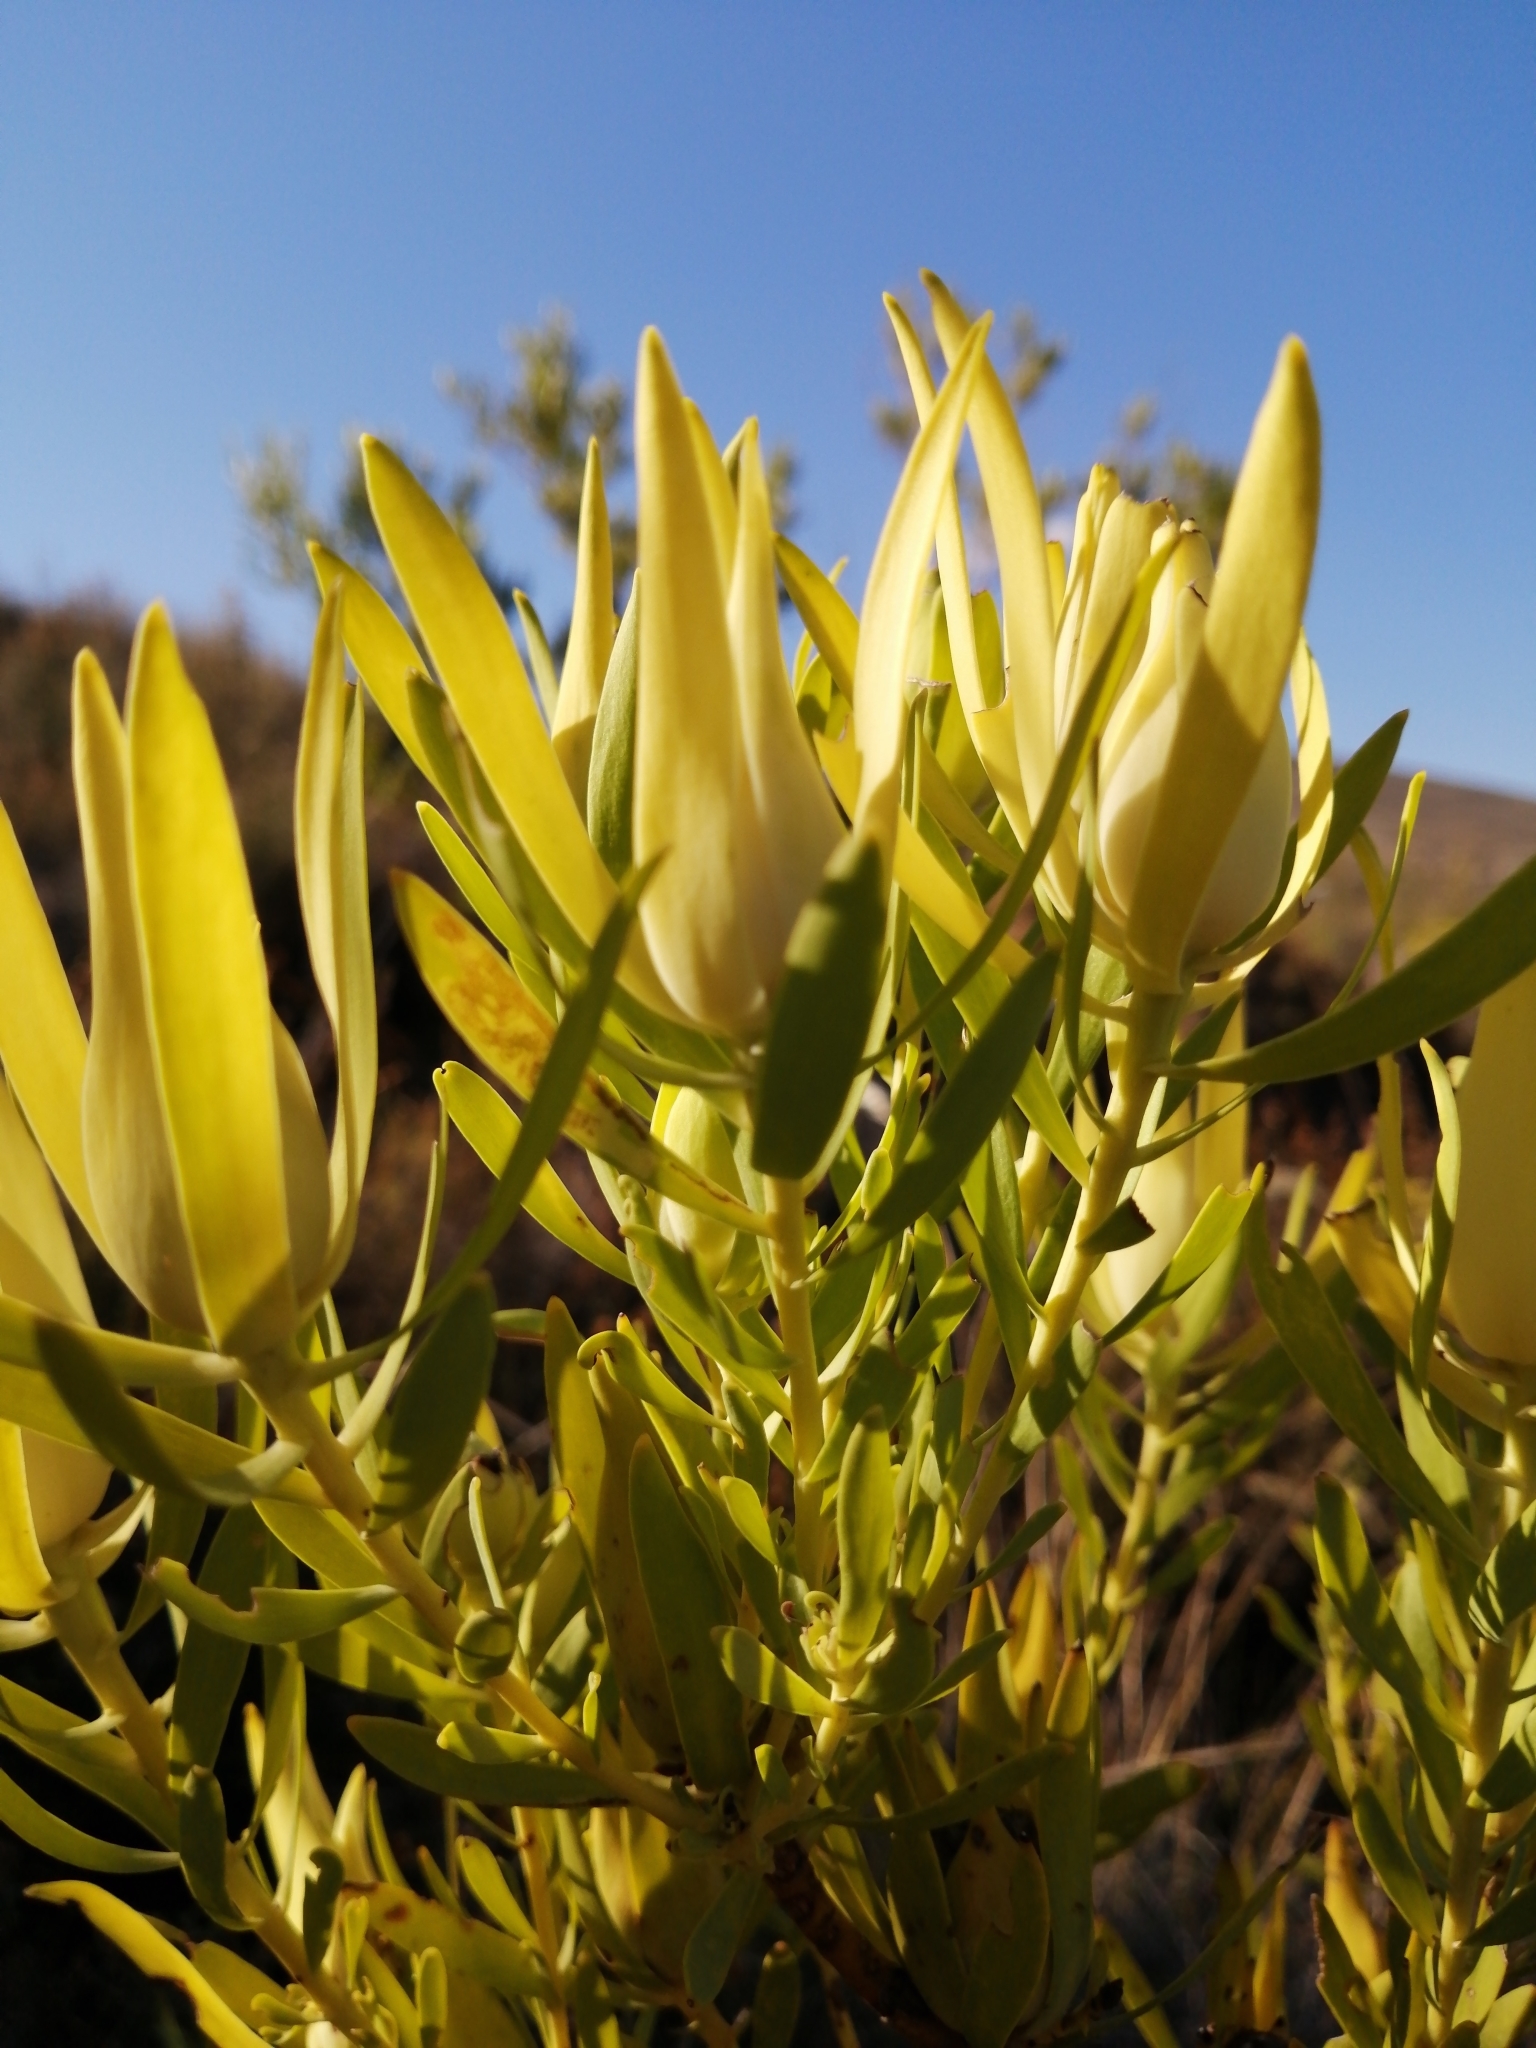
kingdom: Plantae
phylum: Tracheophyta
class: Magnoliopsida
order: Proteales
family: Proteaceae
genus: Leucadendron
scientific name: Leucadendron salignum
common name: Common sunshine conebush
